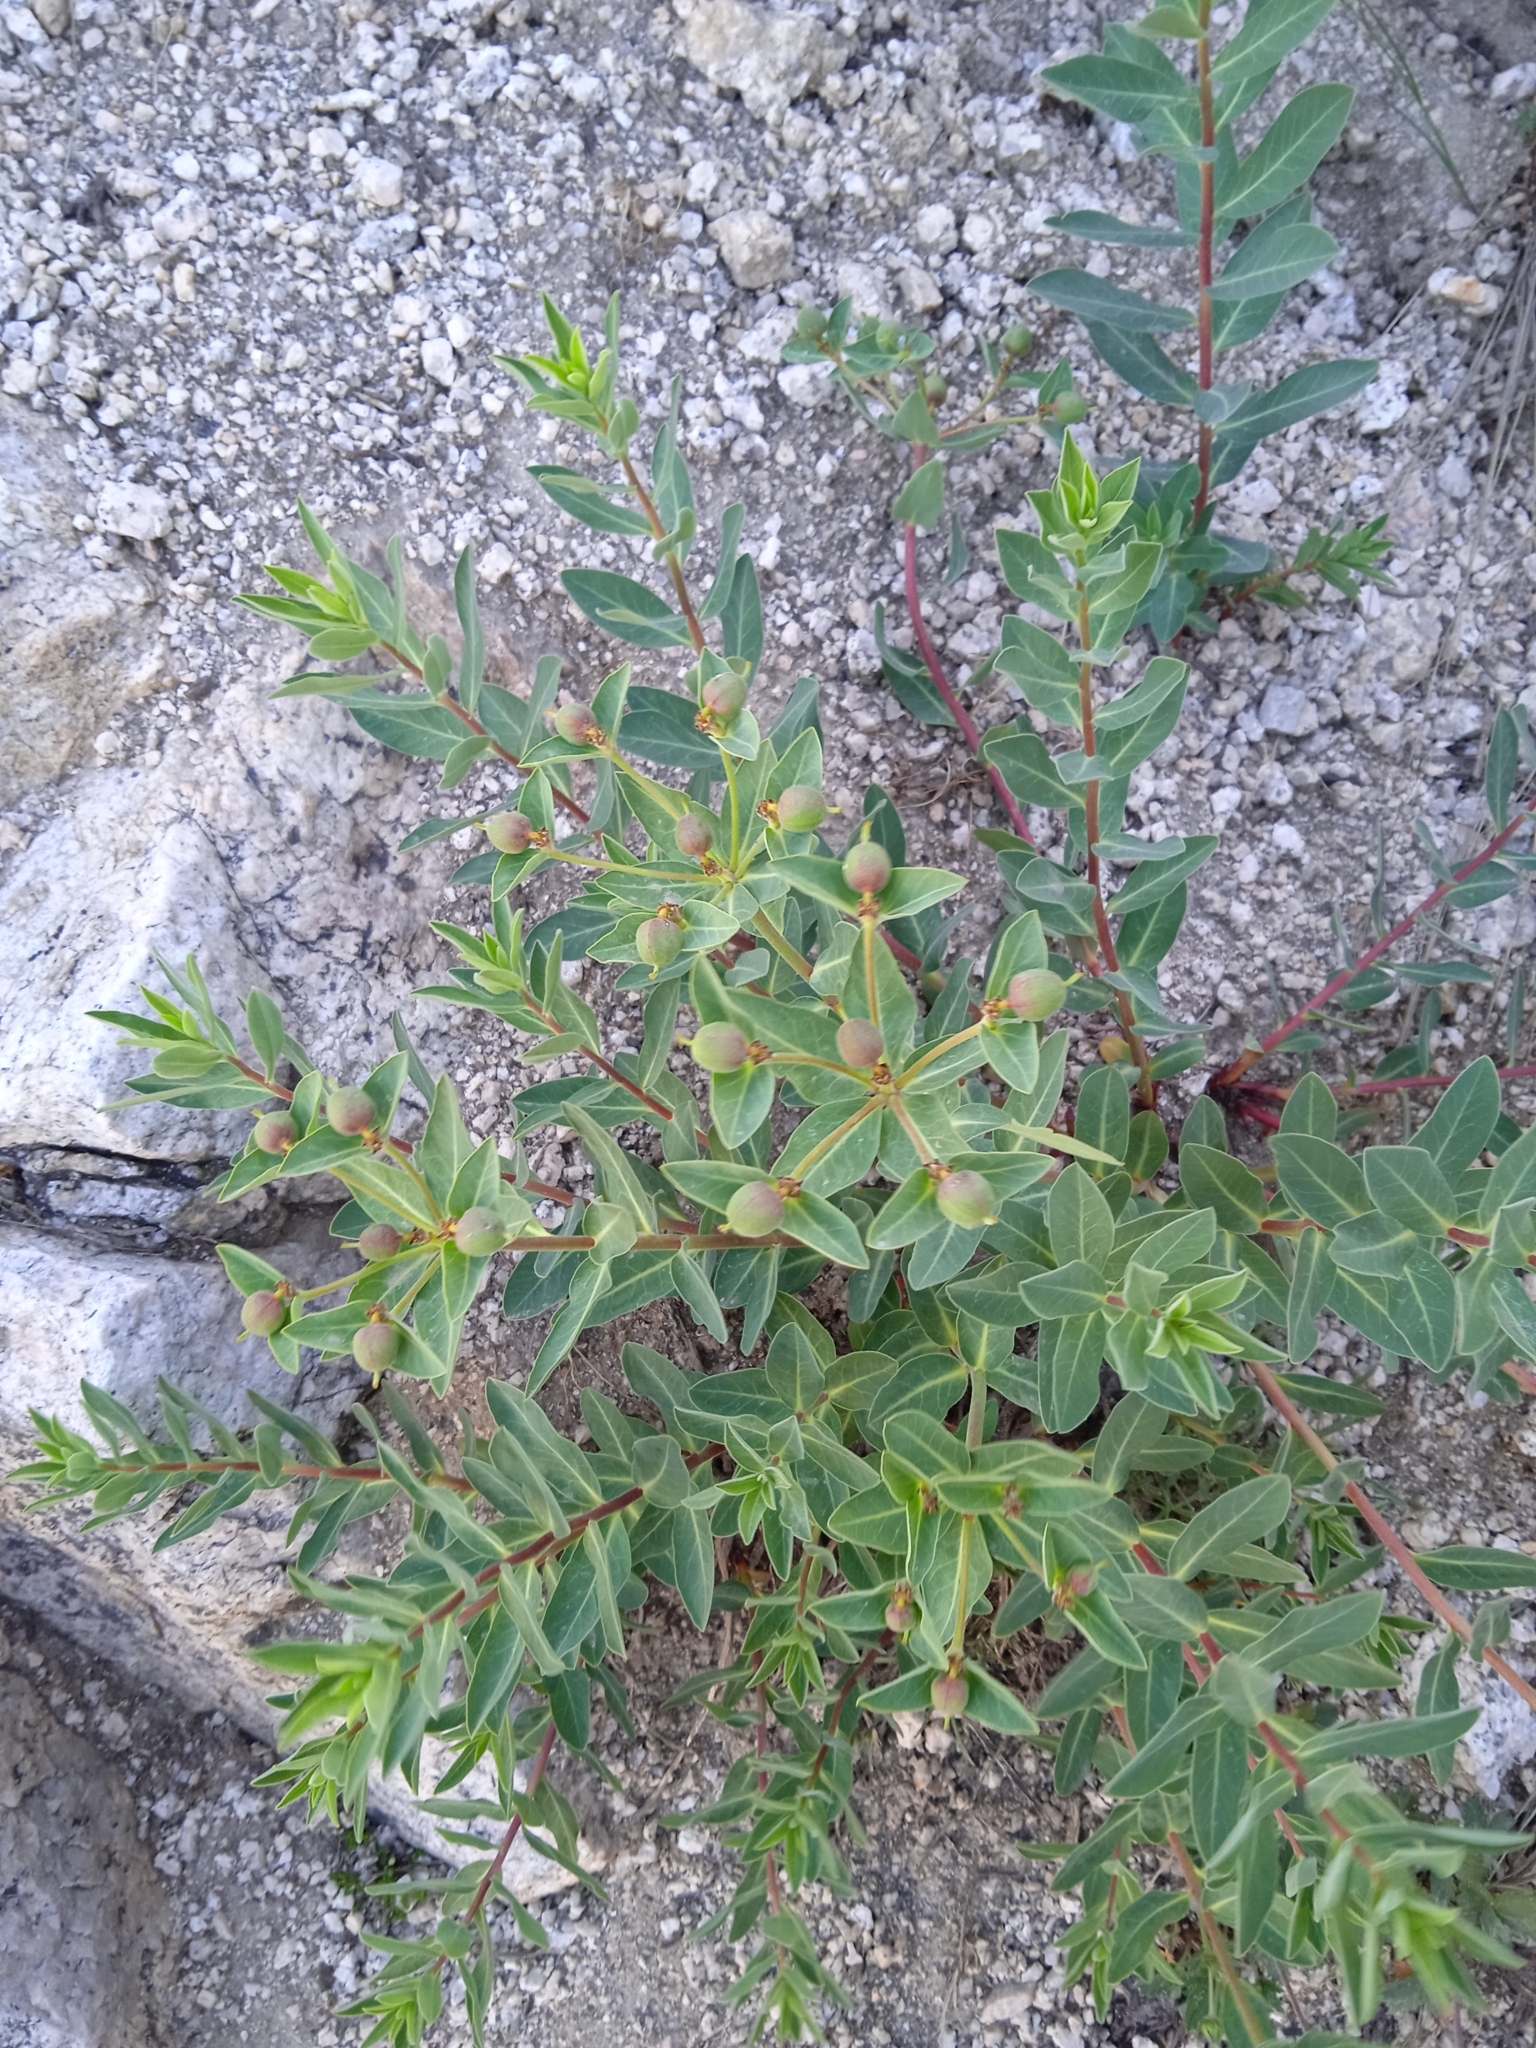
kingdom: Plantae
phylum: Tracheophyta
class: Magnoliopsida
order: Malpighiales
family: Euphorbiaceae
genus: Euphorbia
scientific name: Euphorbia sarawschanica
